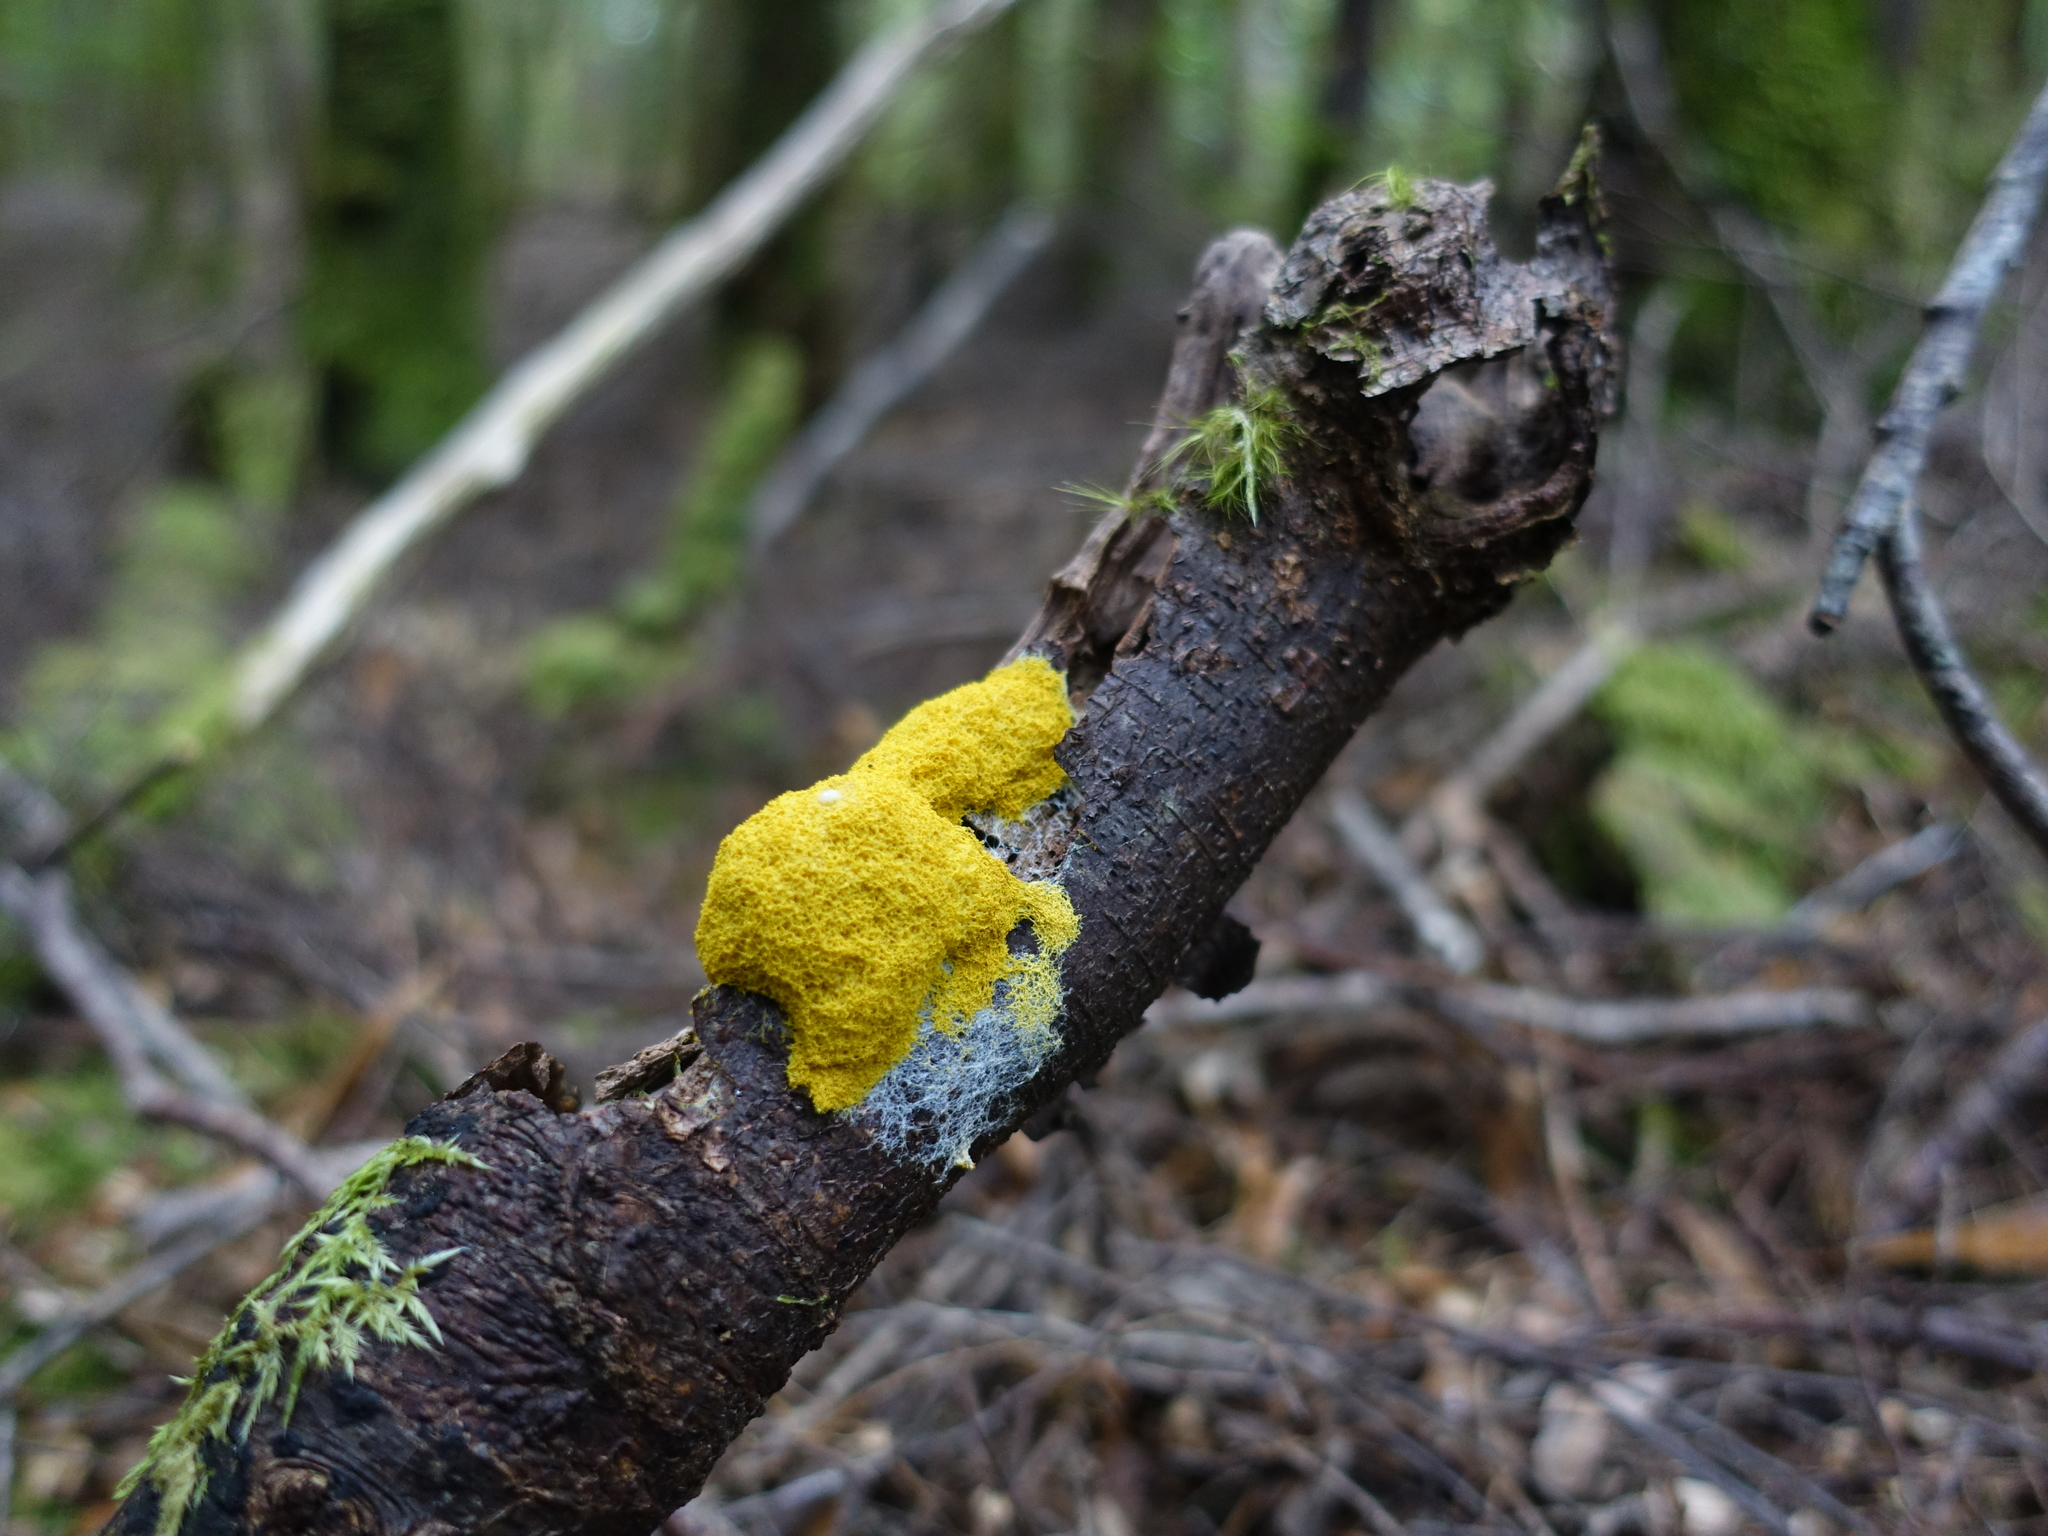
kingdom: Protozoa
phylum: Mycetozoa
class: Myxomycetes
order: Physarales
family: Physaraceae
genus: Fuligo
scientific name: Fuligo septica
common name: Dog vomit slime mold
